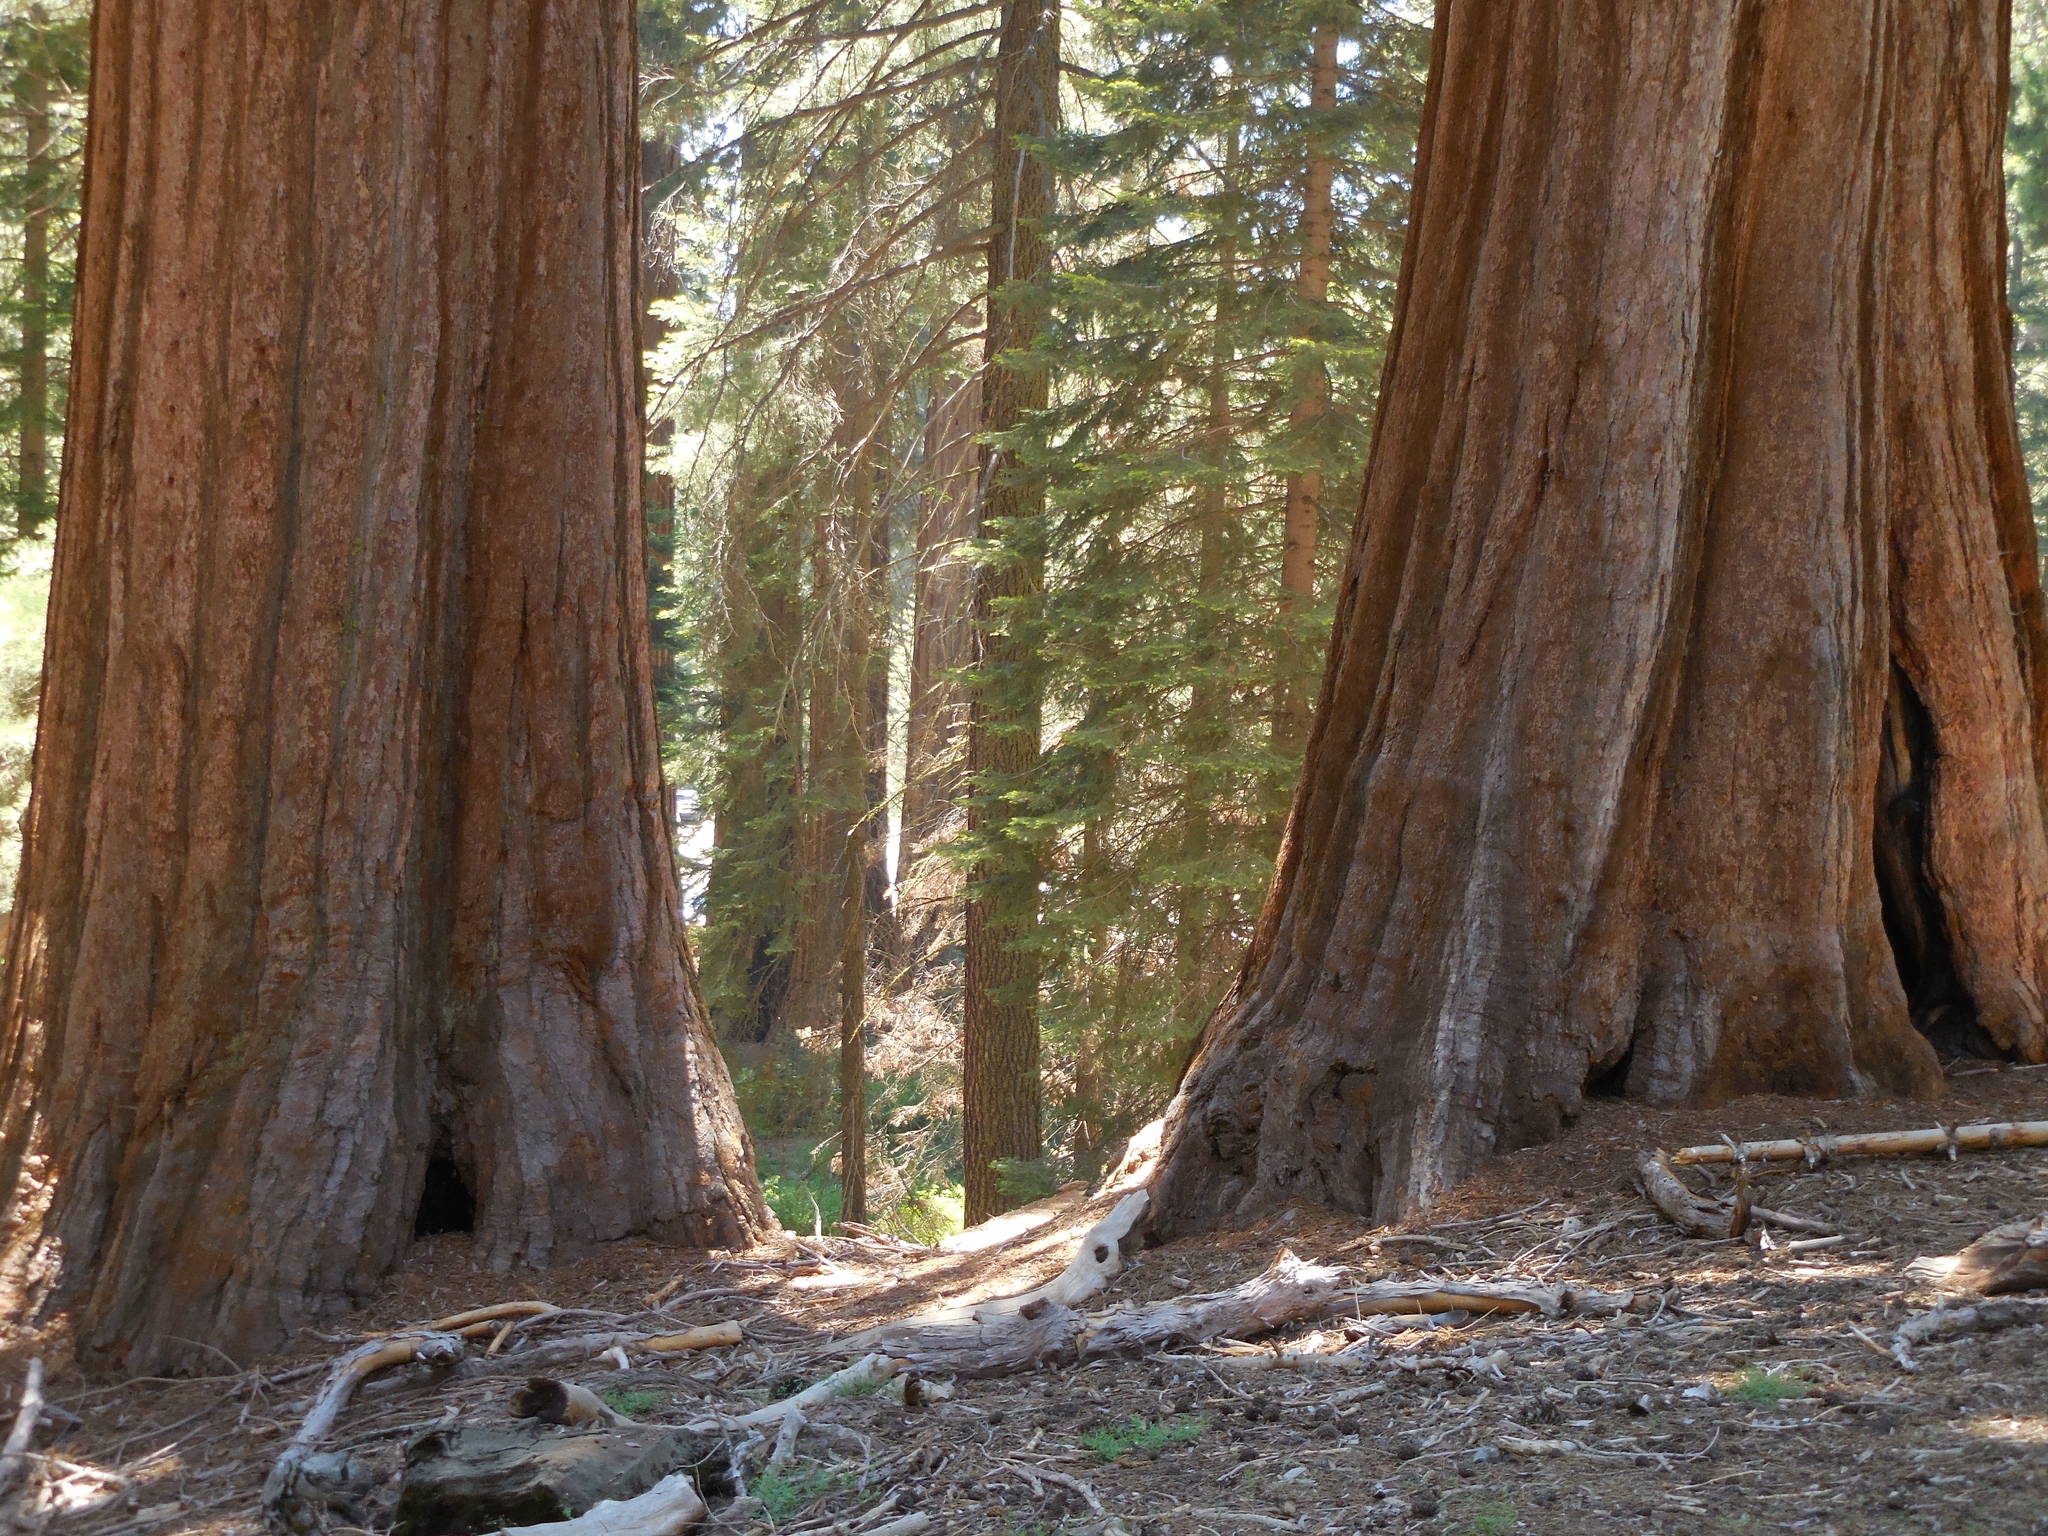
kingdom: Plantae
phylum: Tracheophyta
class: Pinopsida
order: Pinales
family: Cupressaceae
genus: Sequoiadendron
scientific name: Sequoiadendron giganteum
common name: Wellingtonia
